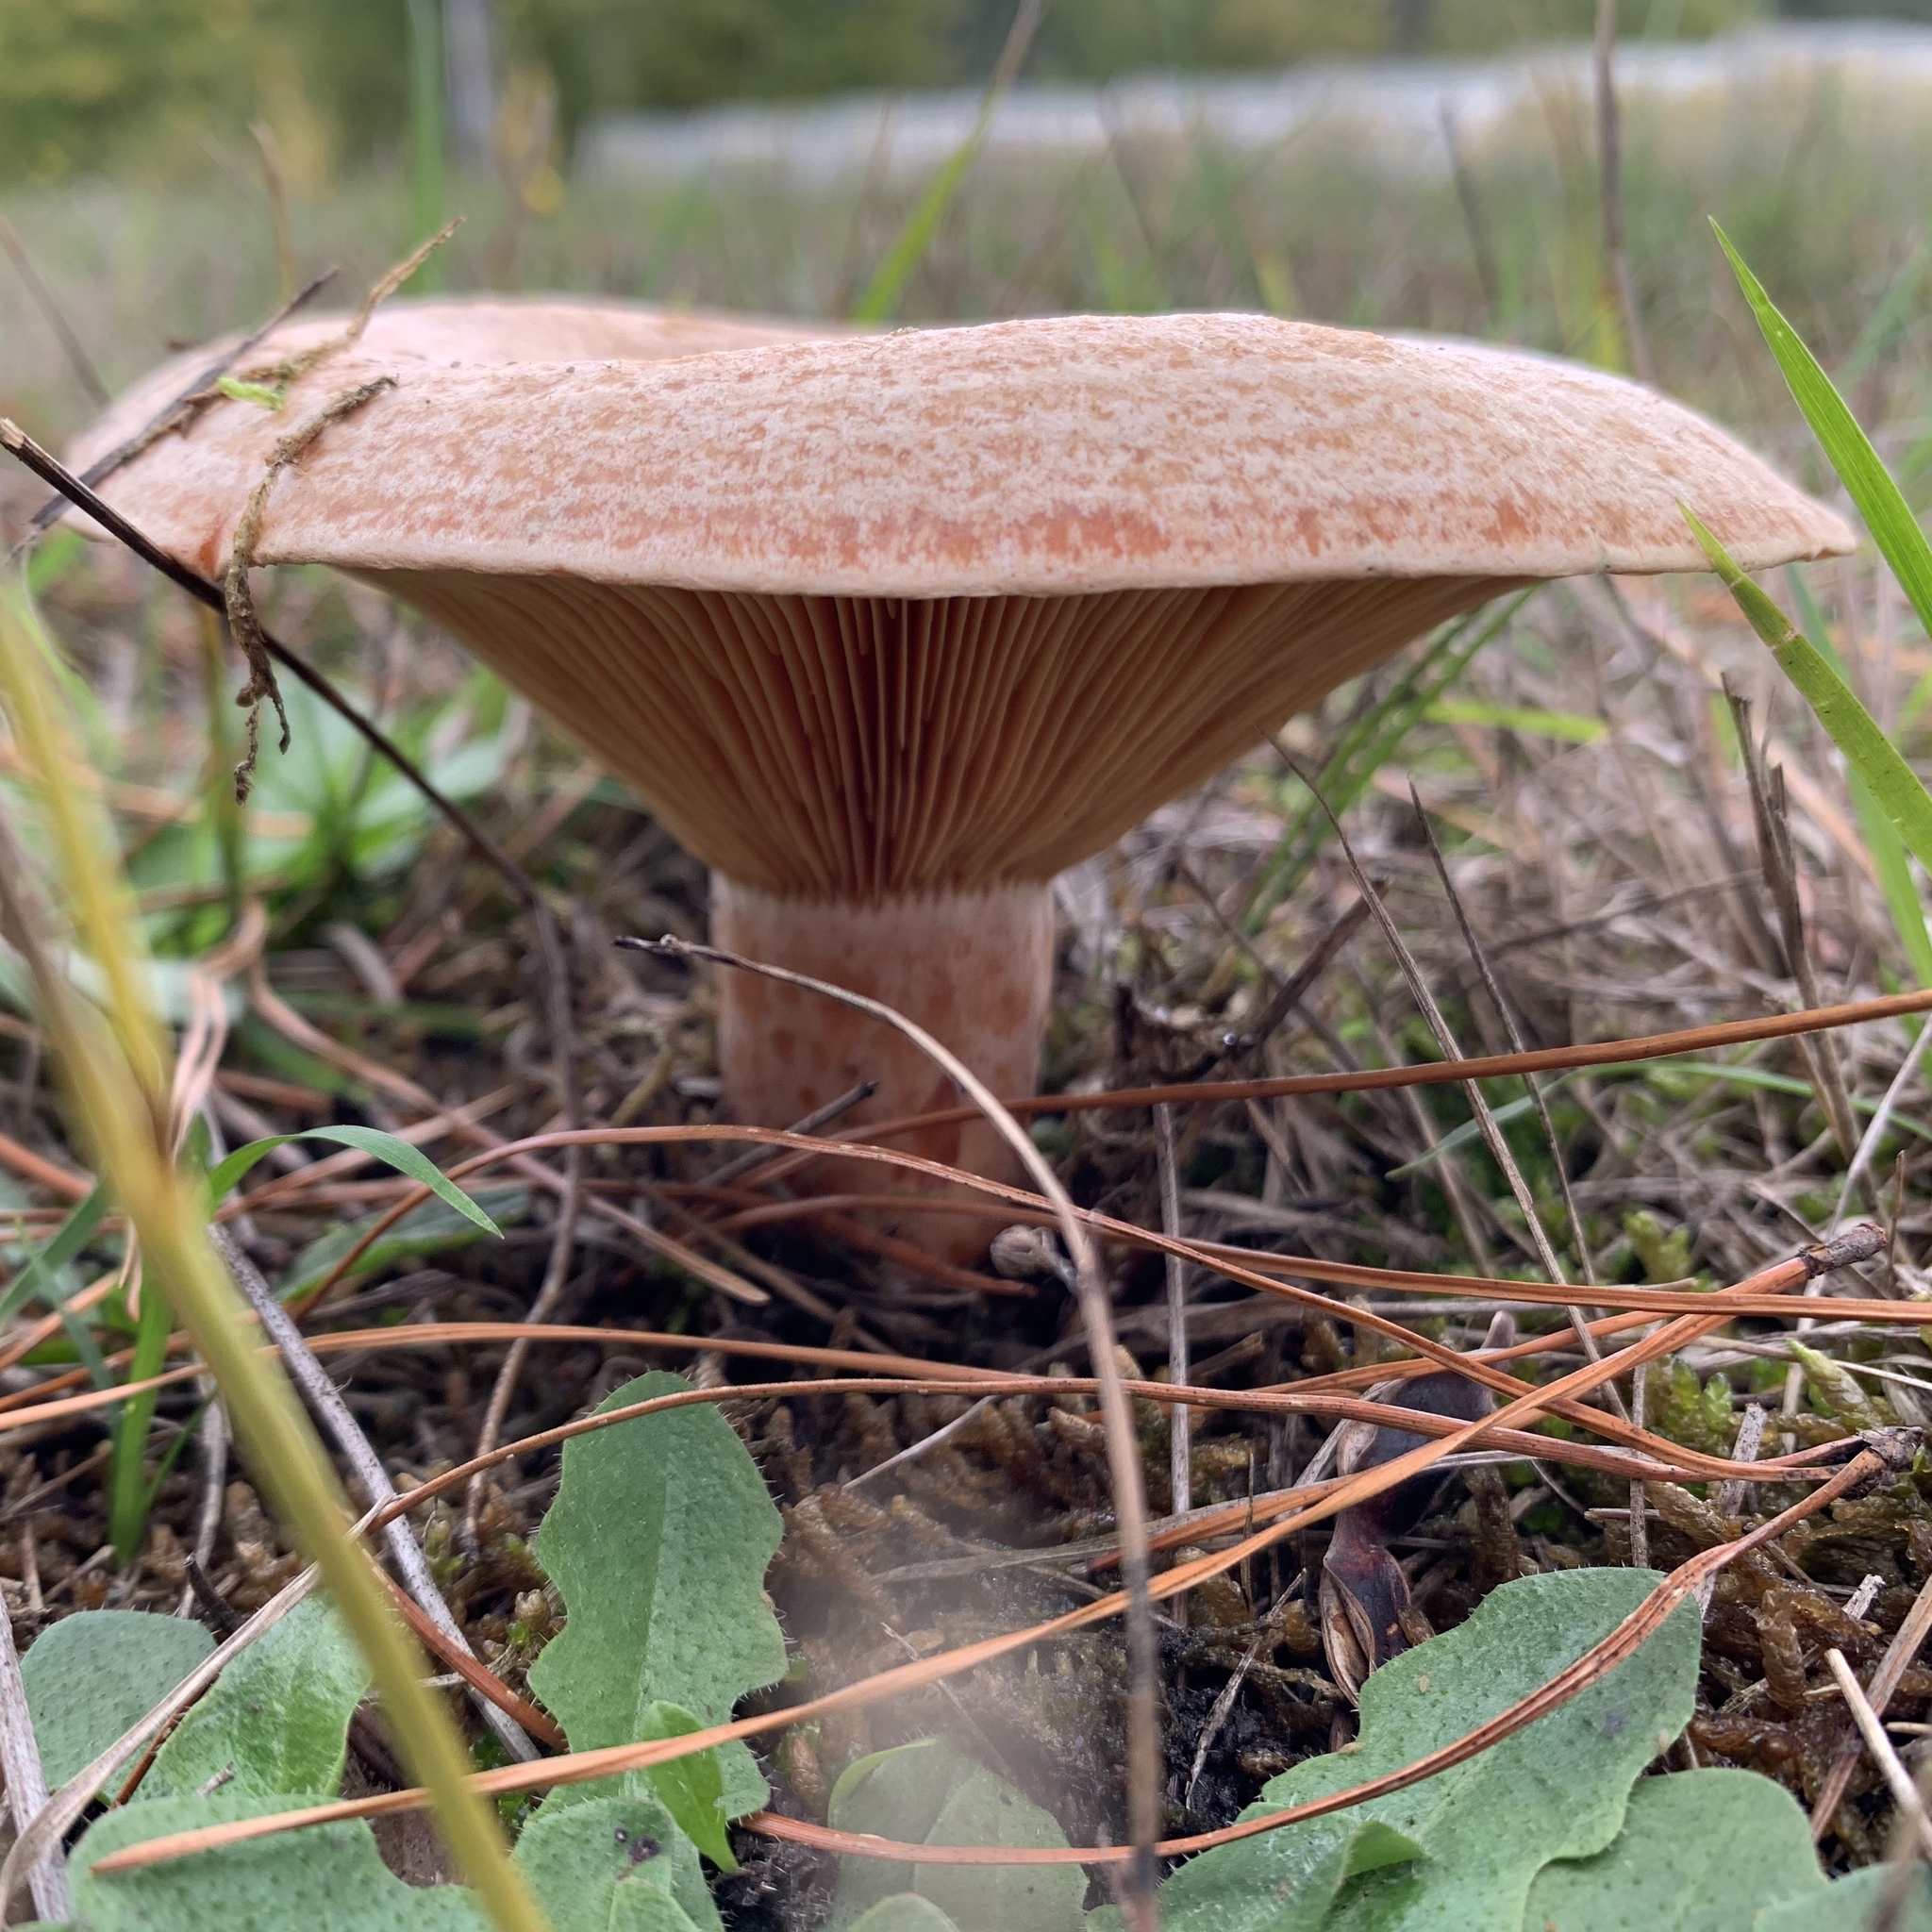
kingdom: Fungi
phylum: Basidiomycota
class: Agaricomycetes
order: Russulales
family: Russulaceae
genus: Lactarius
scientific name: Lactarius deliciosus
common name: Saffron milk-cap
